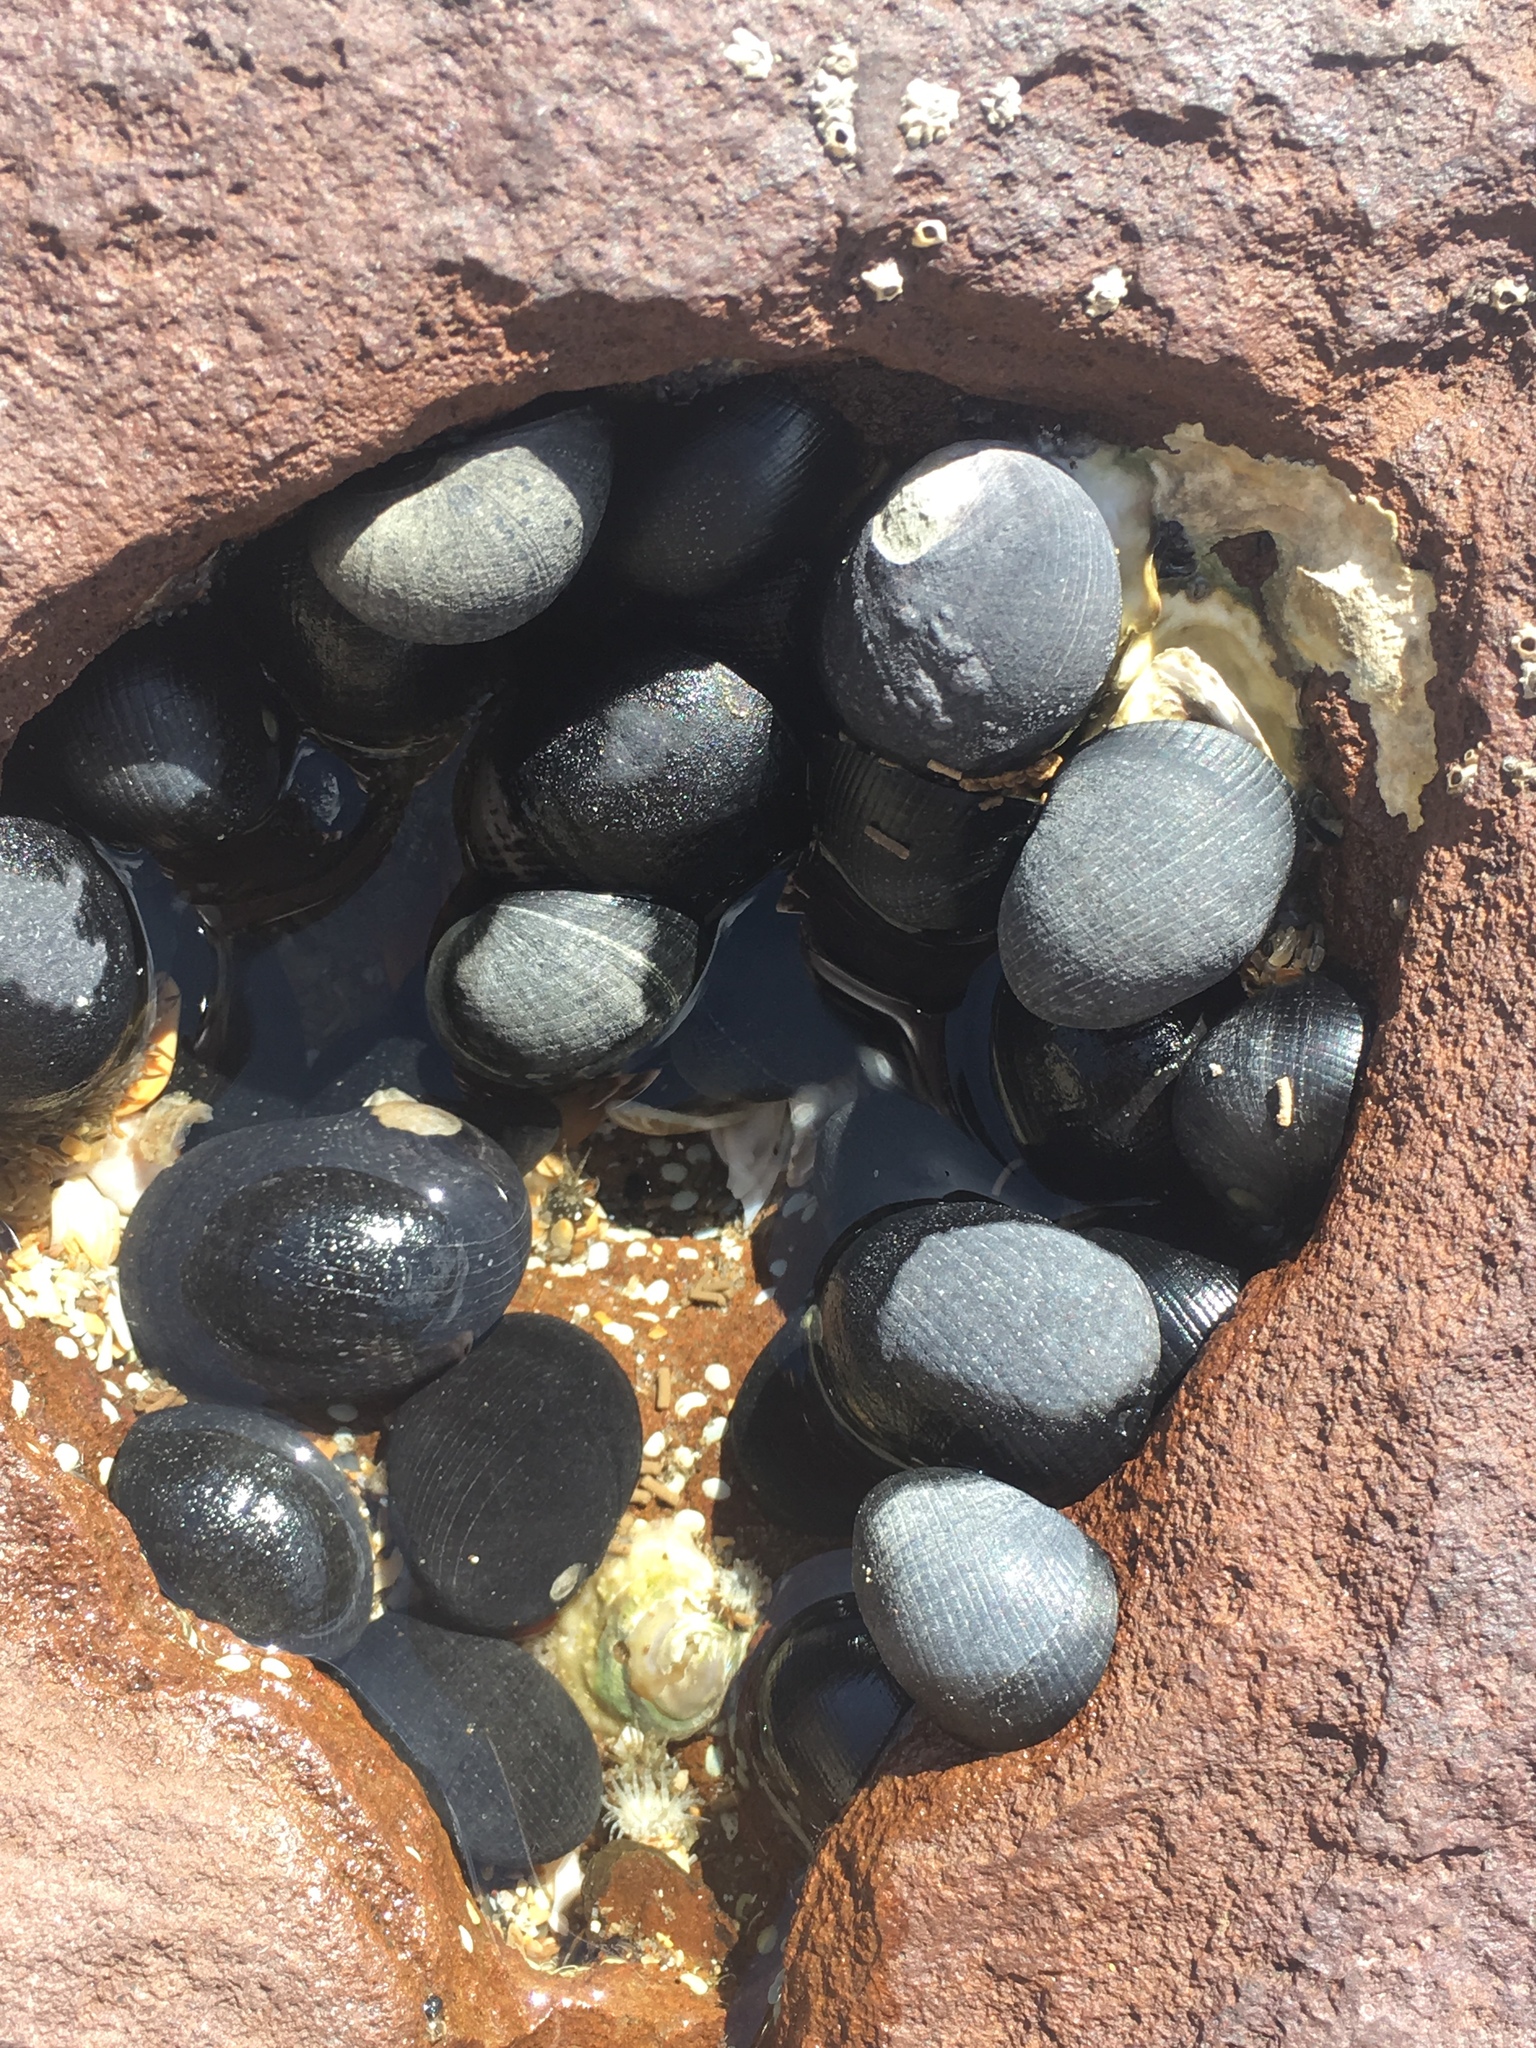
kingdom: Animalia
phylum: Mollusca
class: Gastropoda
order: Cycloneritida
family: Neritidae
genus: Nerita
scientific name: Nerita melanotragus
